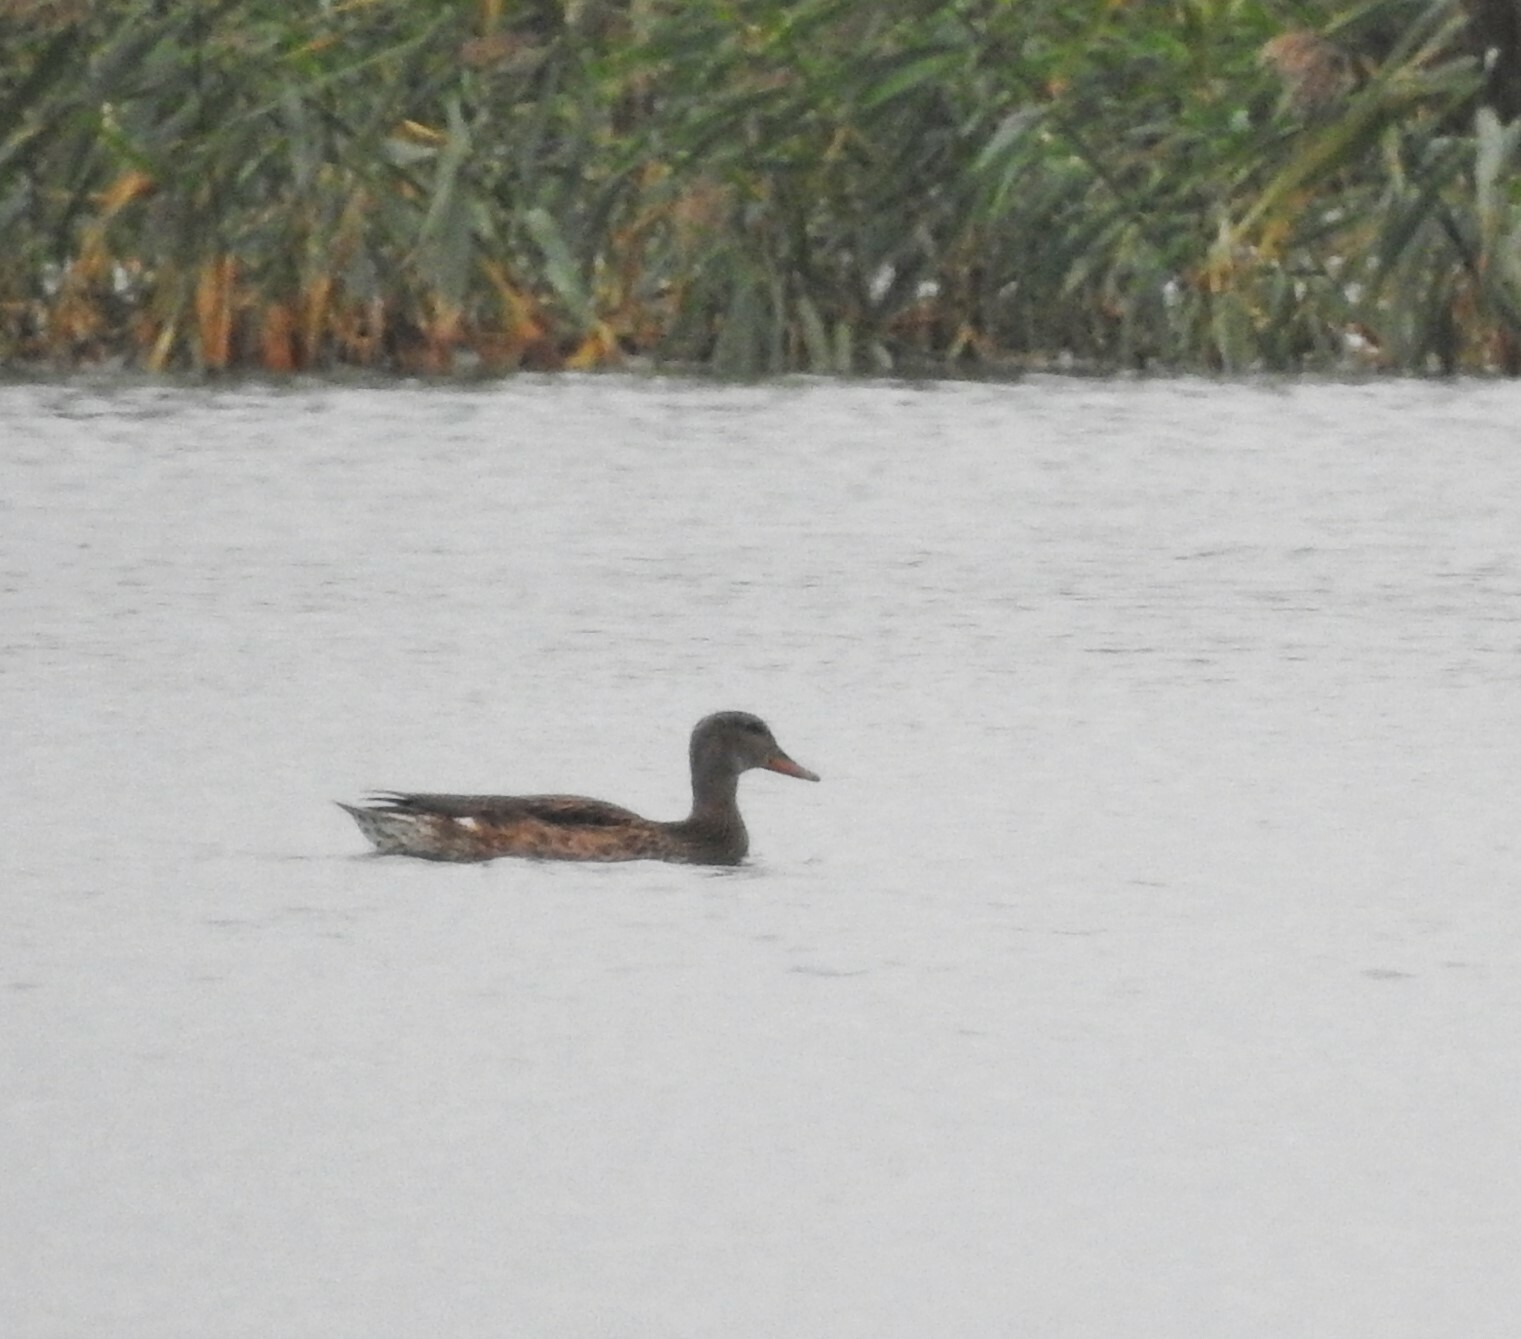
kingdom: Animalia
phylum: Chordata
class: Aves
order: Anseriformes
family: Anatidae
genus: Mareca
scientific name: Mareca strepera
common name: Gadwall
